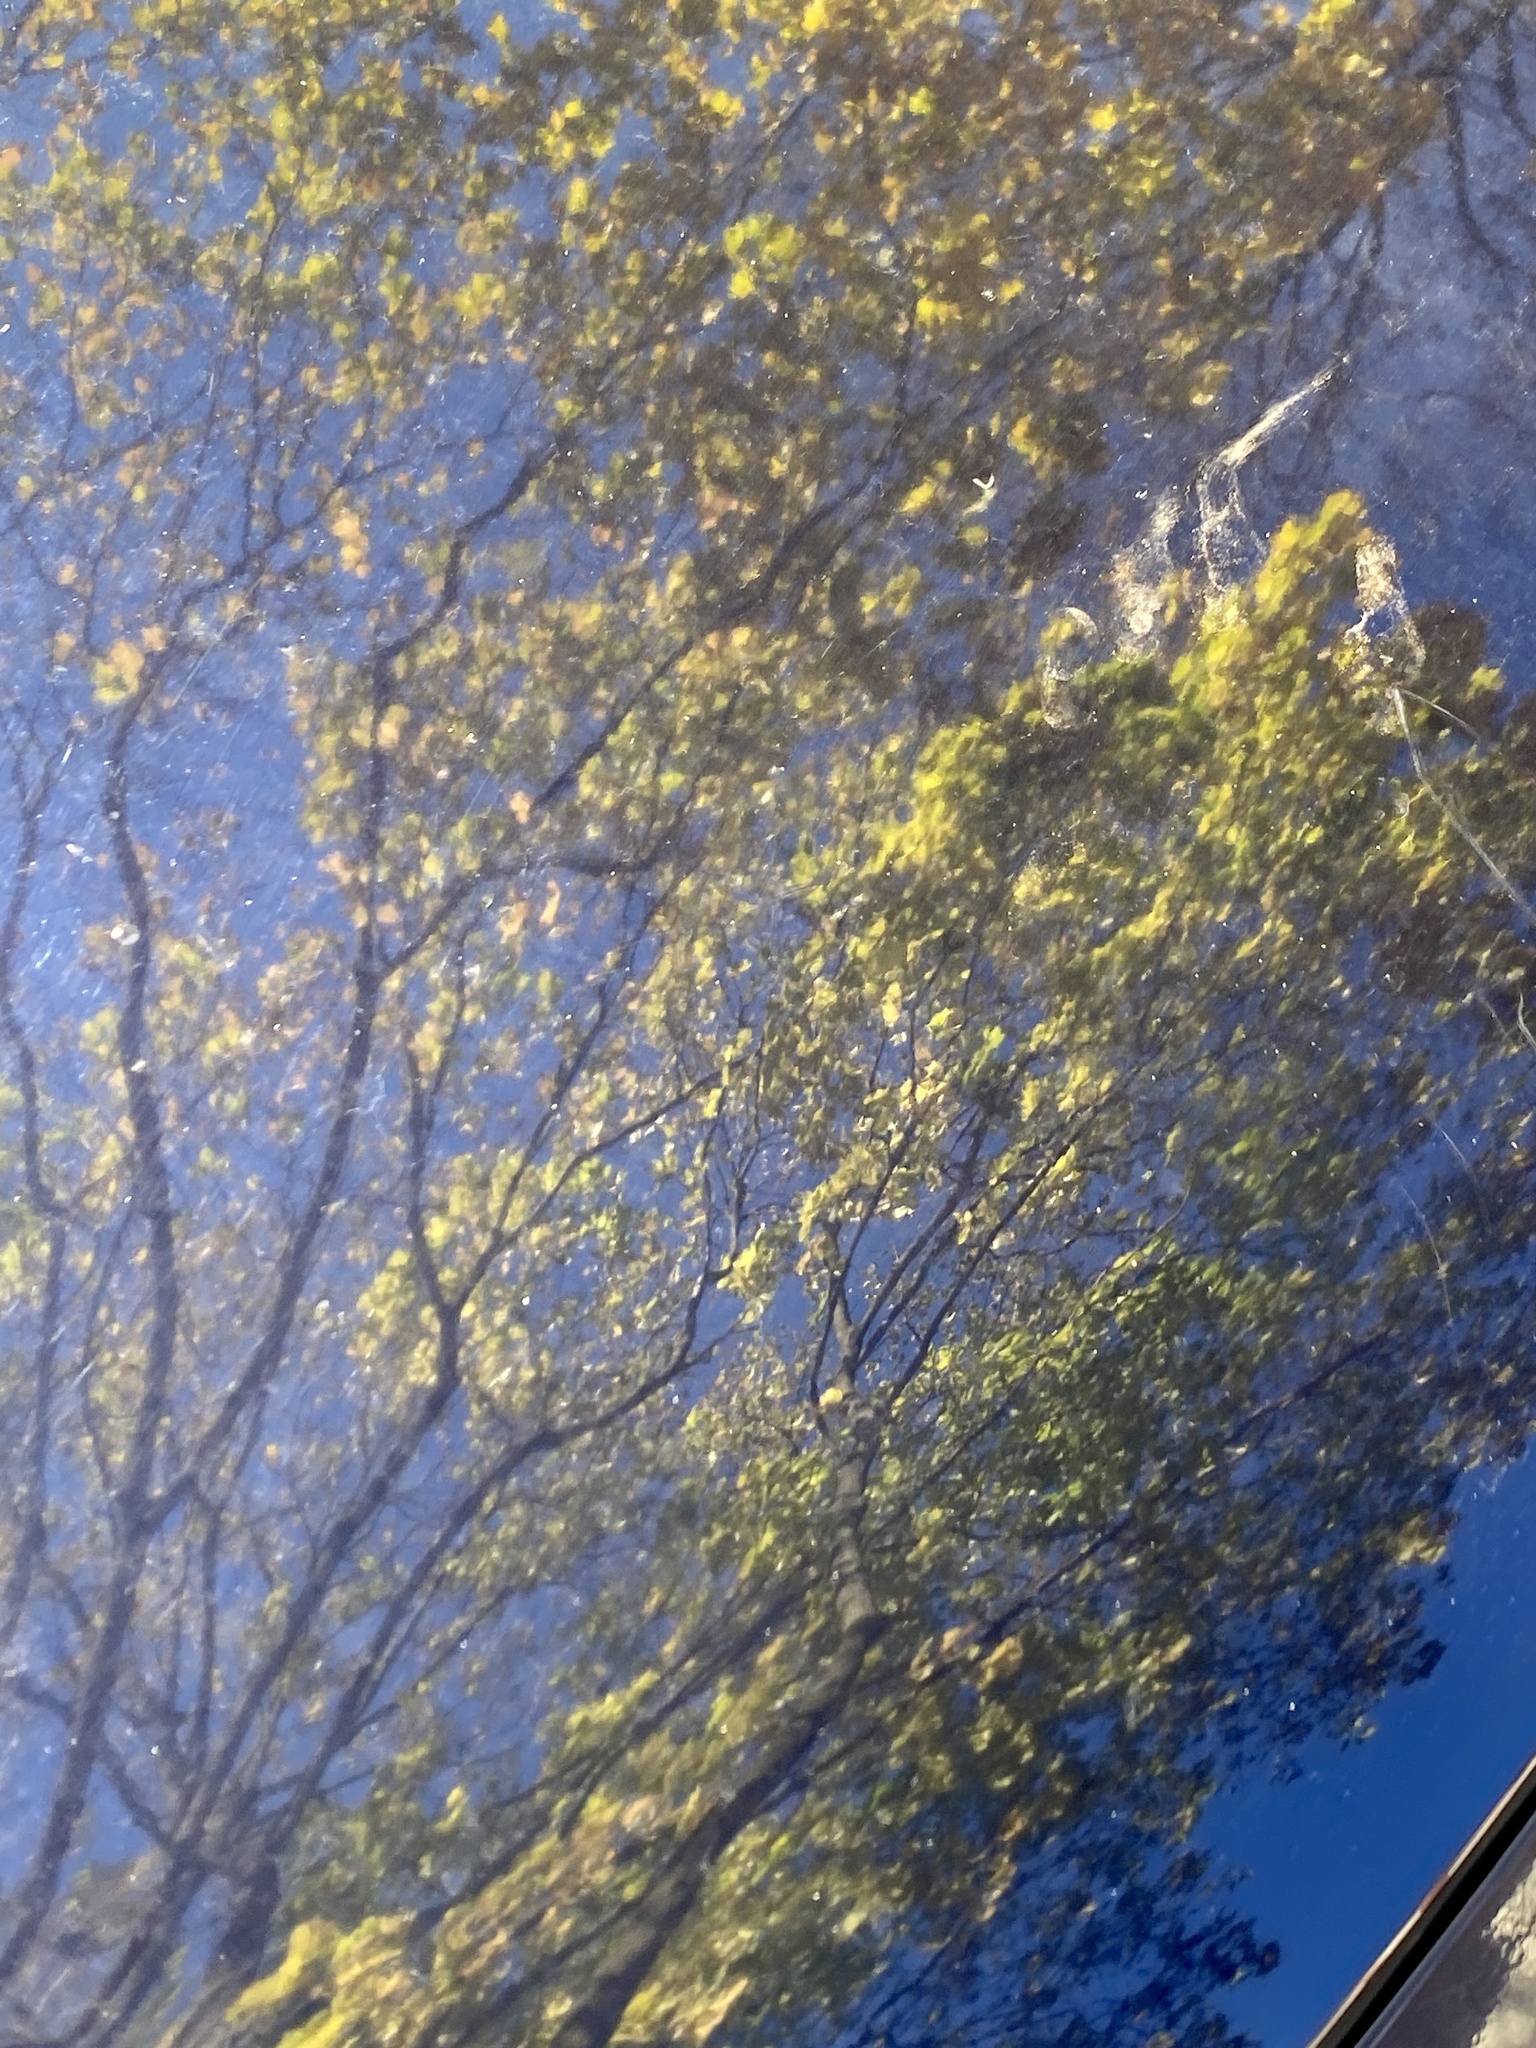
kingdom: Plantae
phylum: Tracheophyta
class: Magnoliopsida
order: Sapindales
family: Sapindaceae
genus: Acer
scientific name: Acer platanoides
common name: Norway maple
